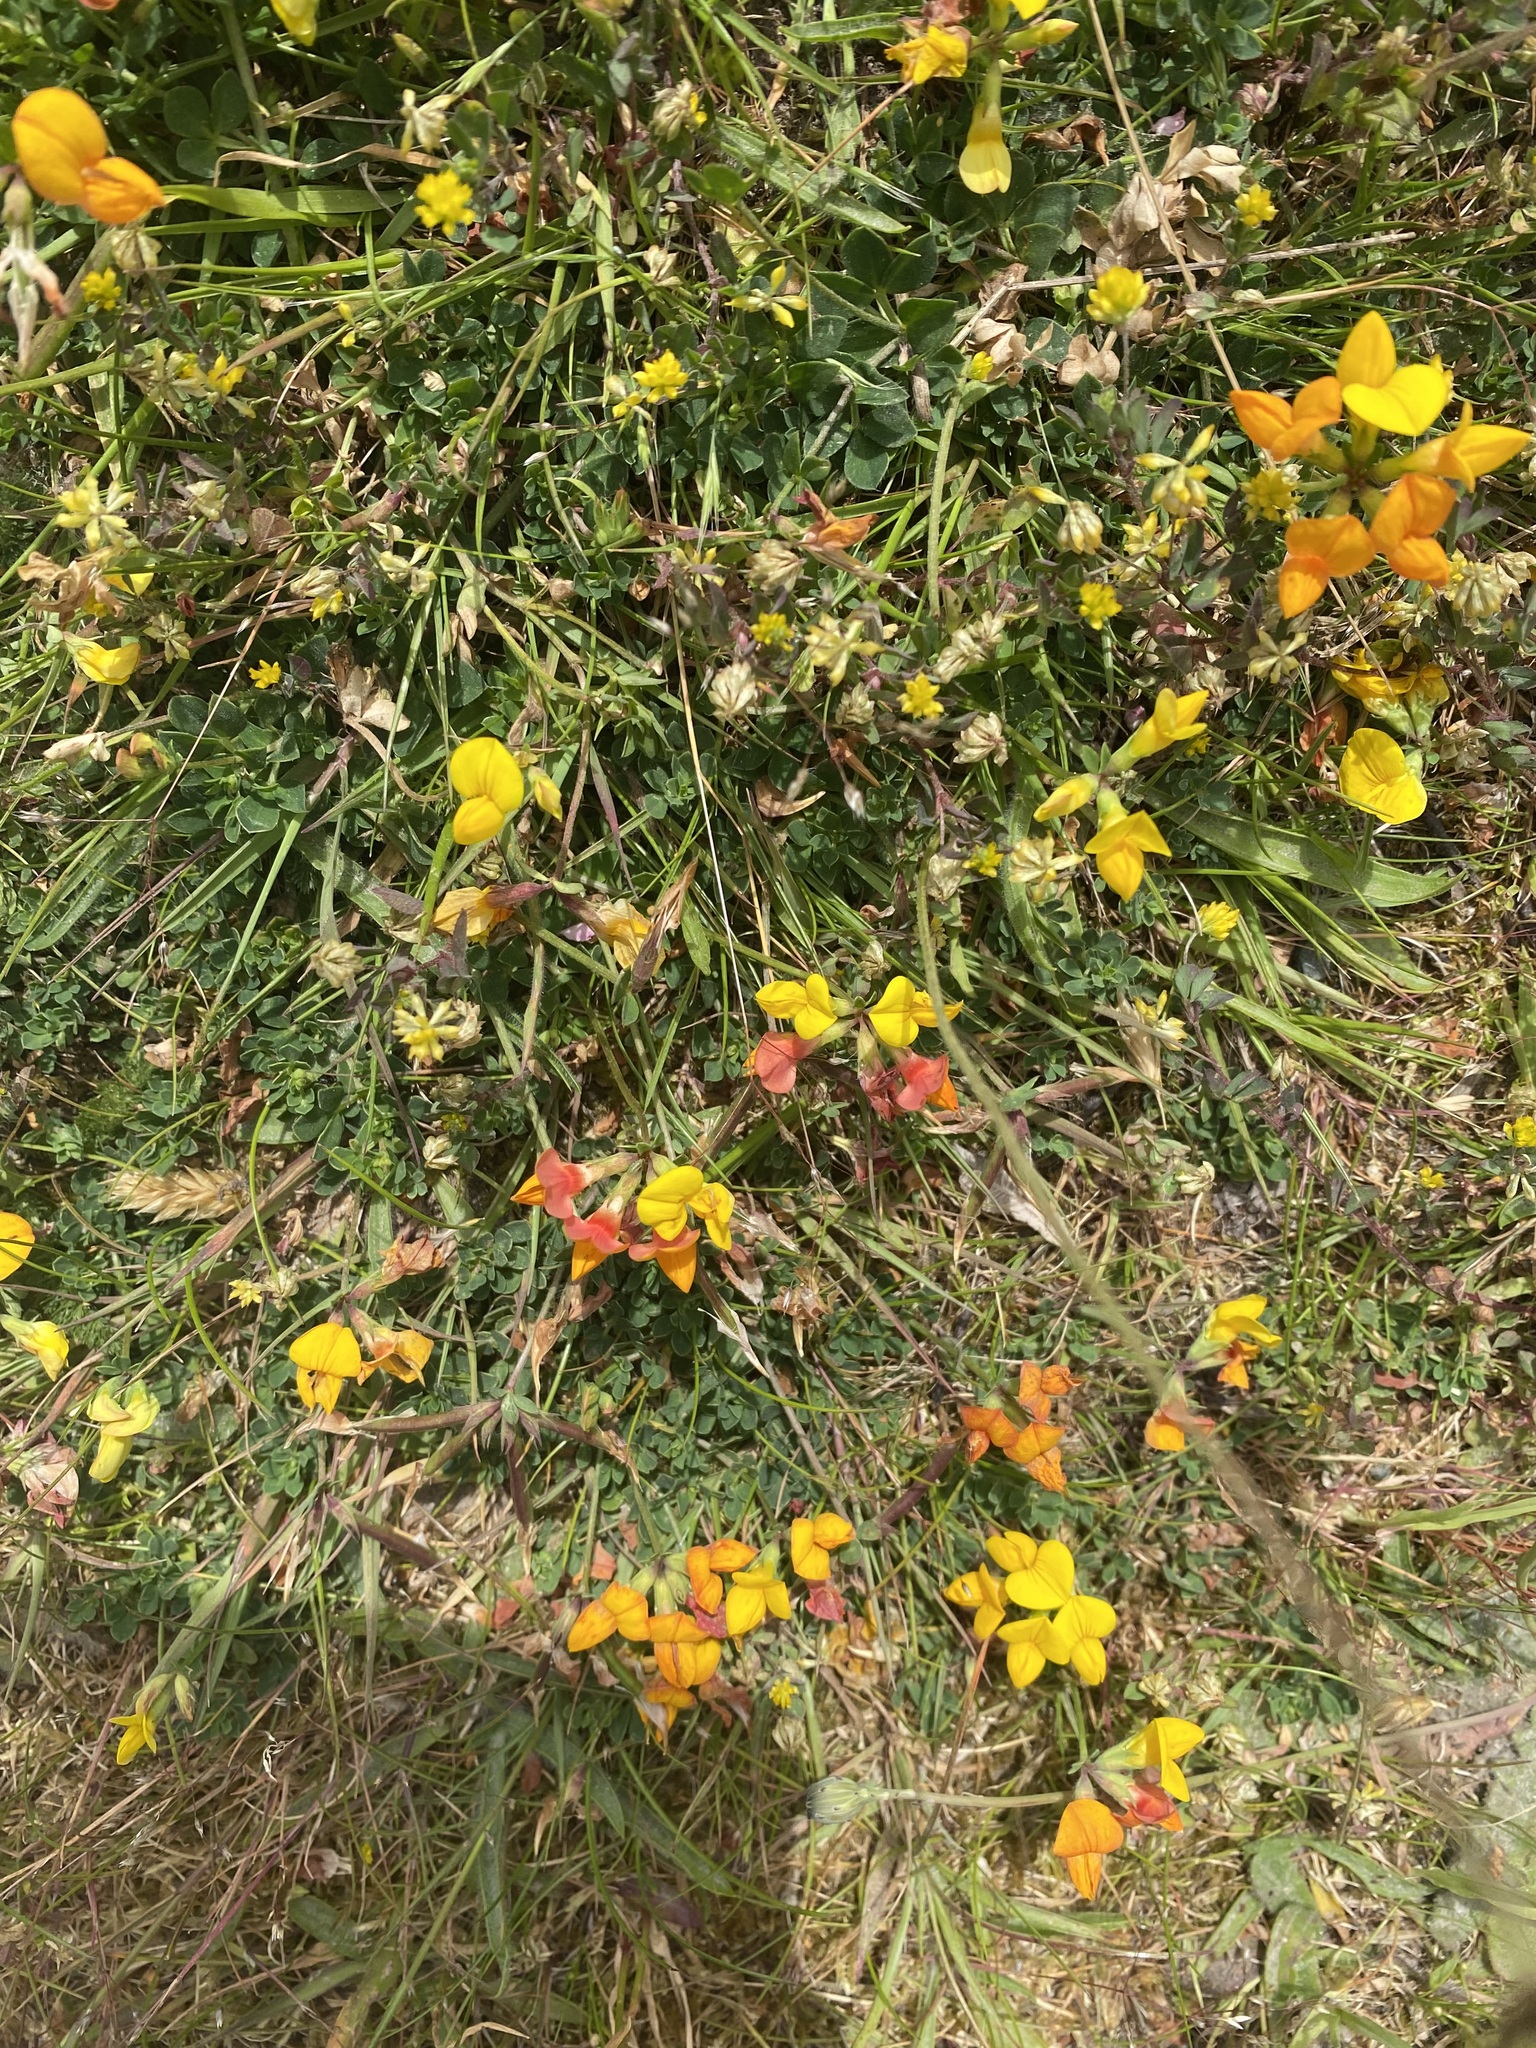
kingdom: Plantae
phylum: Tracheophyta
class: Magnoliopsida
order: Fabales
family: Fabaceae
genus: Lotus
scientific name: Lotus corniculatus
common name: Common bird's-foot-trefoil
